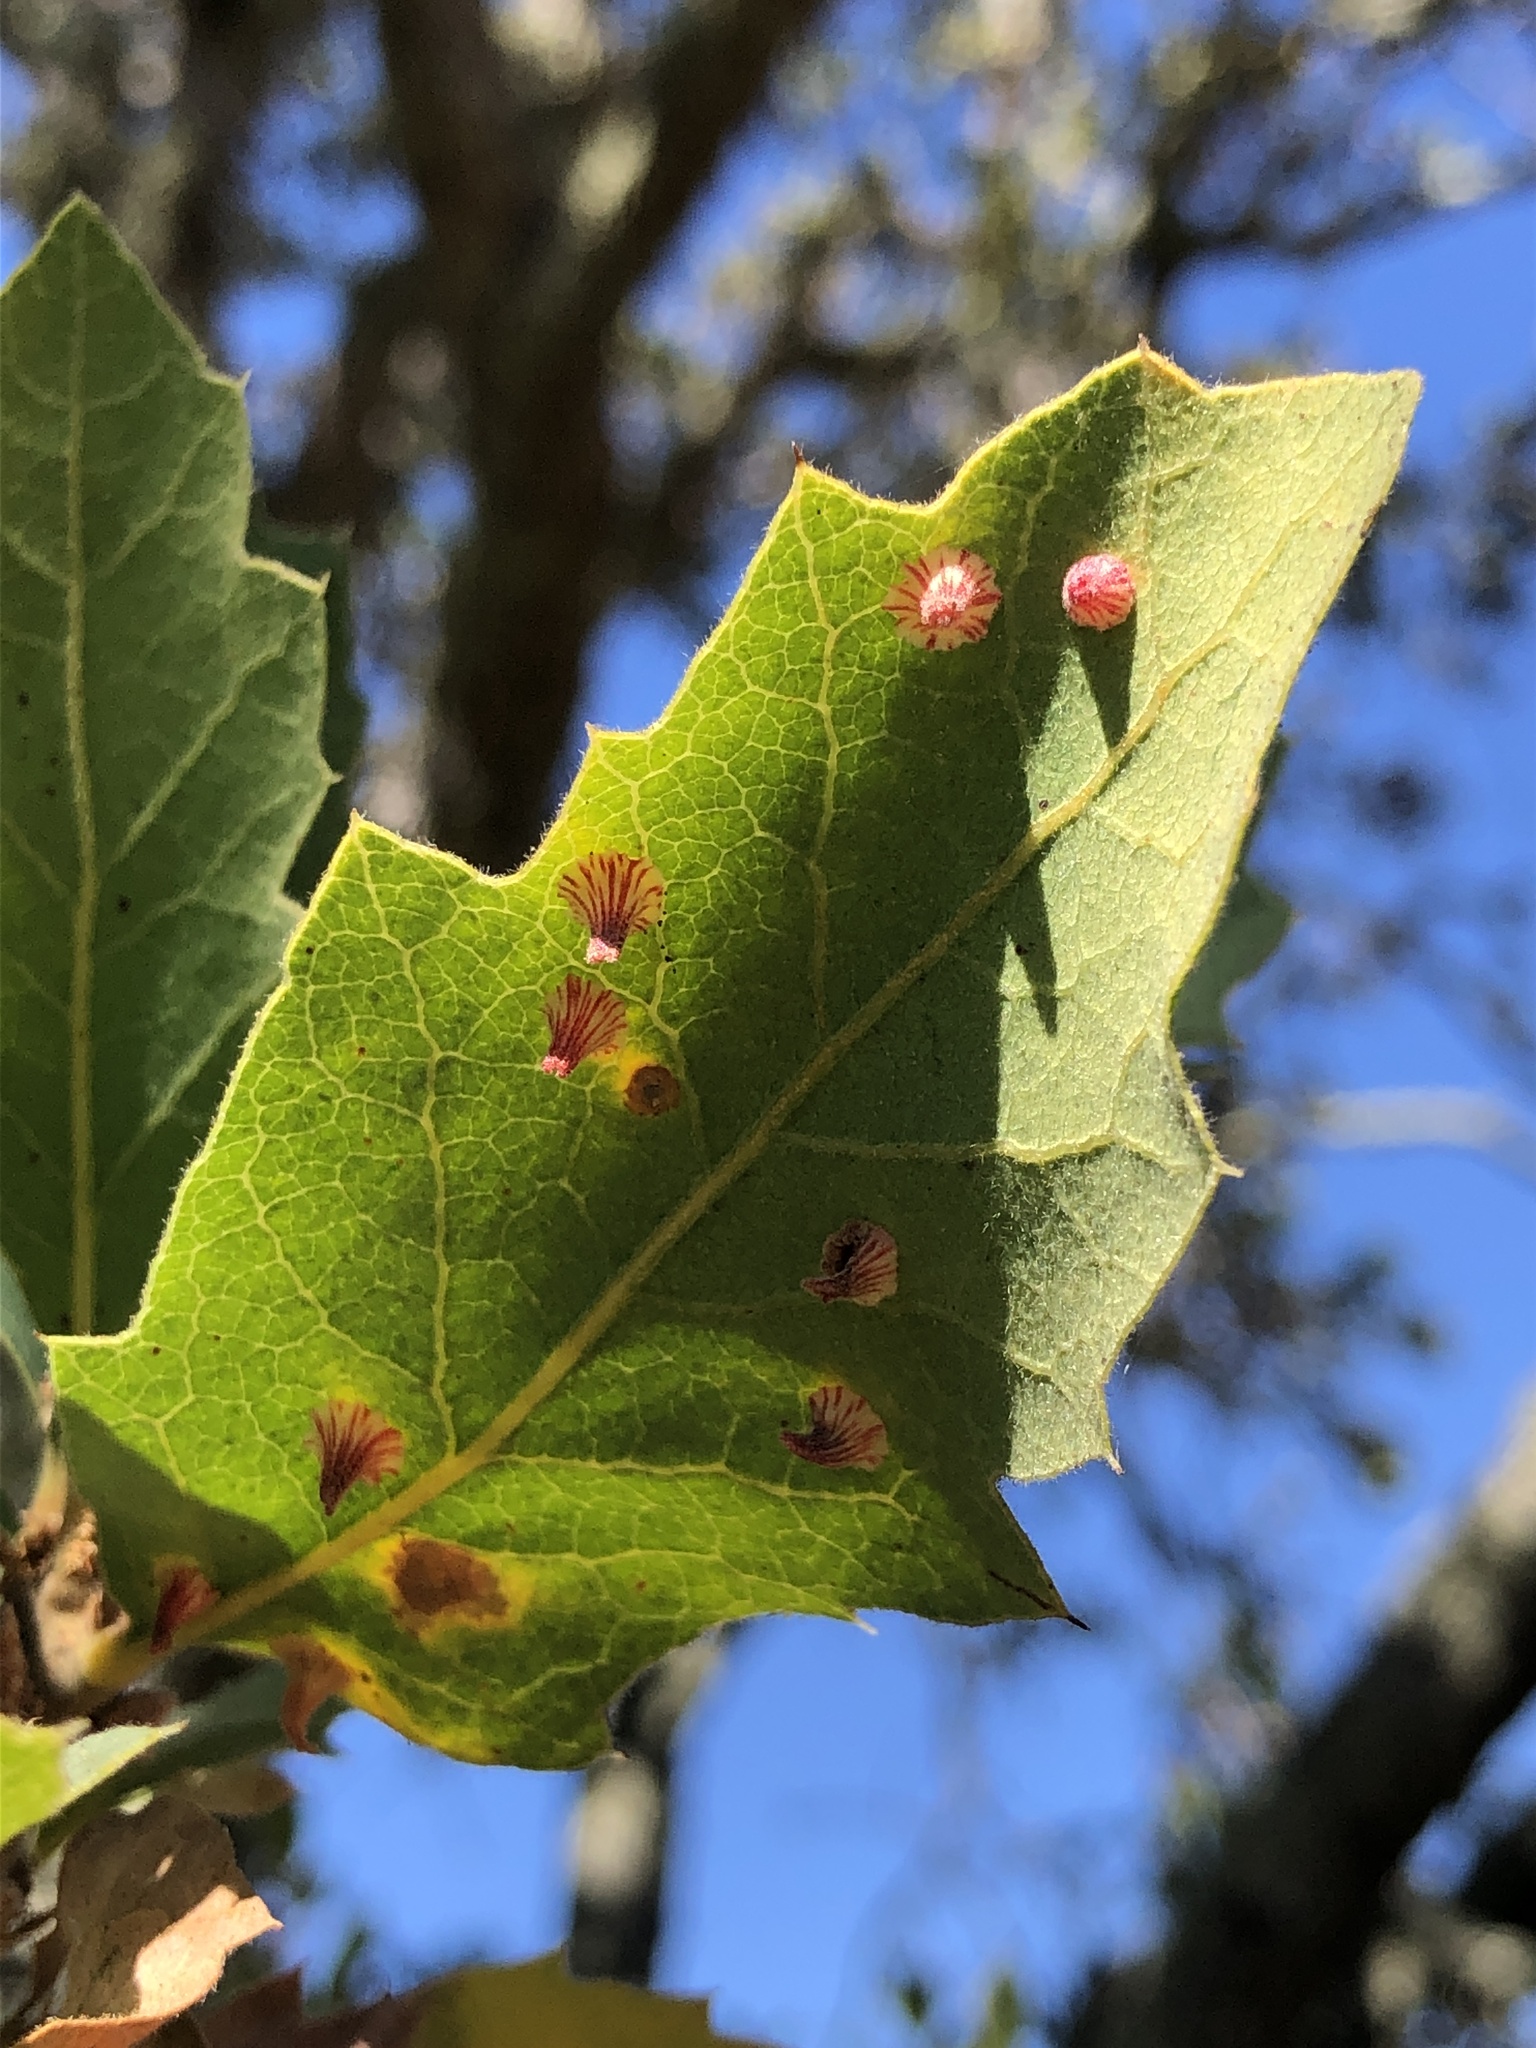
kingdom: Animalia
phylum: Arthropoda
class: Insecta
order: Hymenoptera
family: Cynipidae
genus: Andricus
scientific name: Andricus
